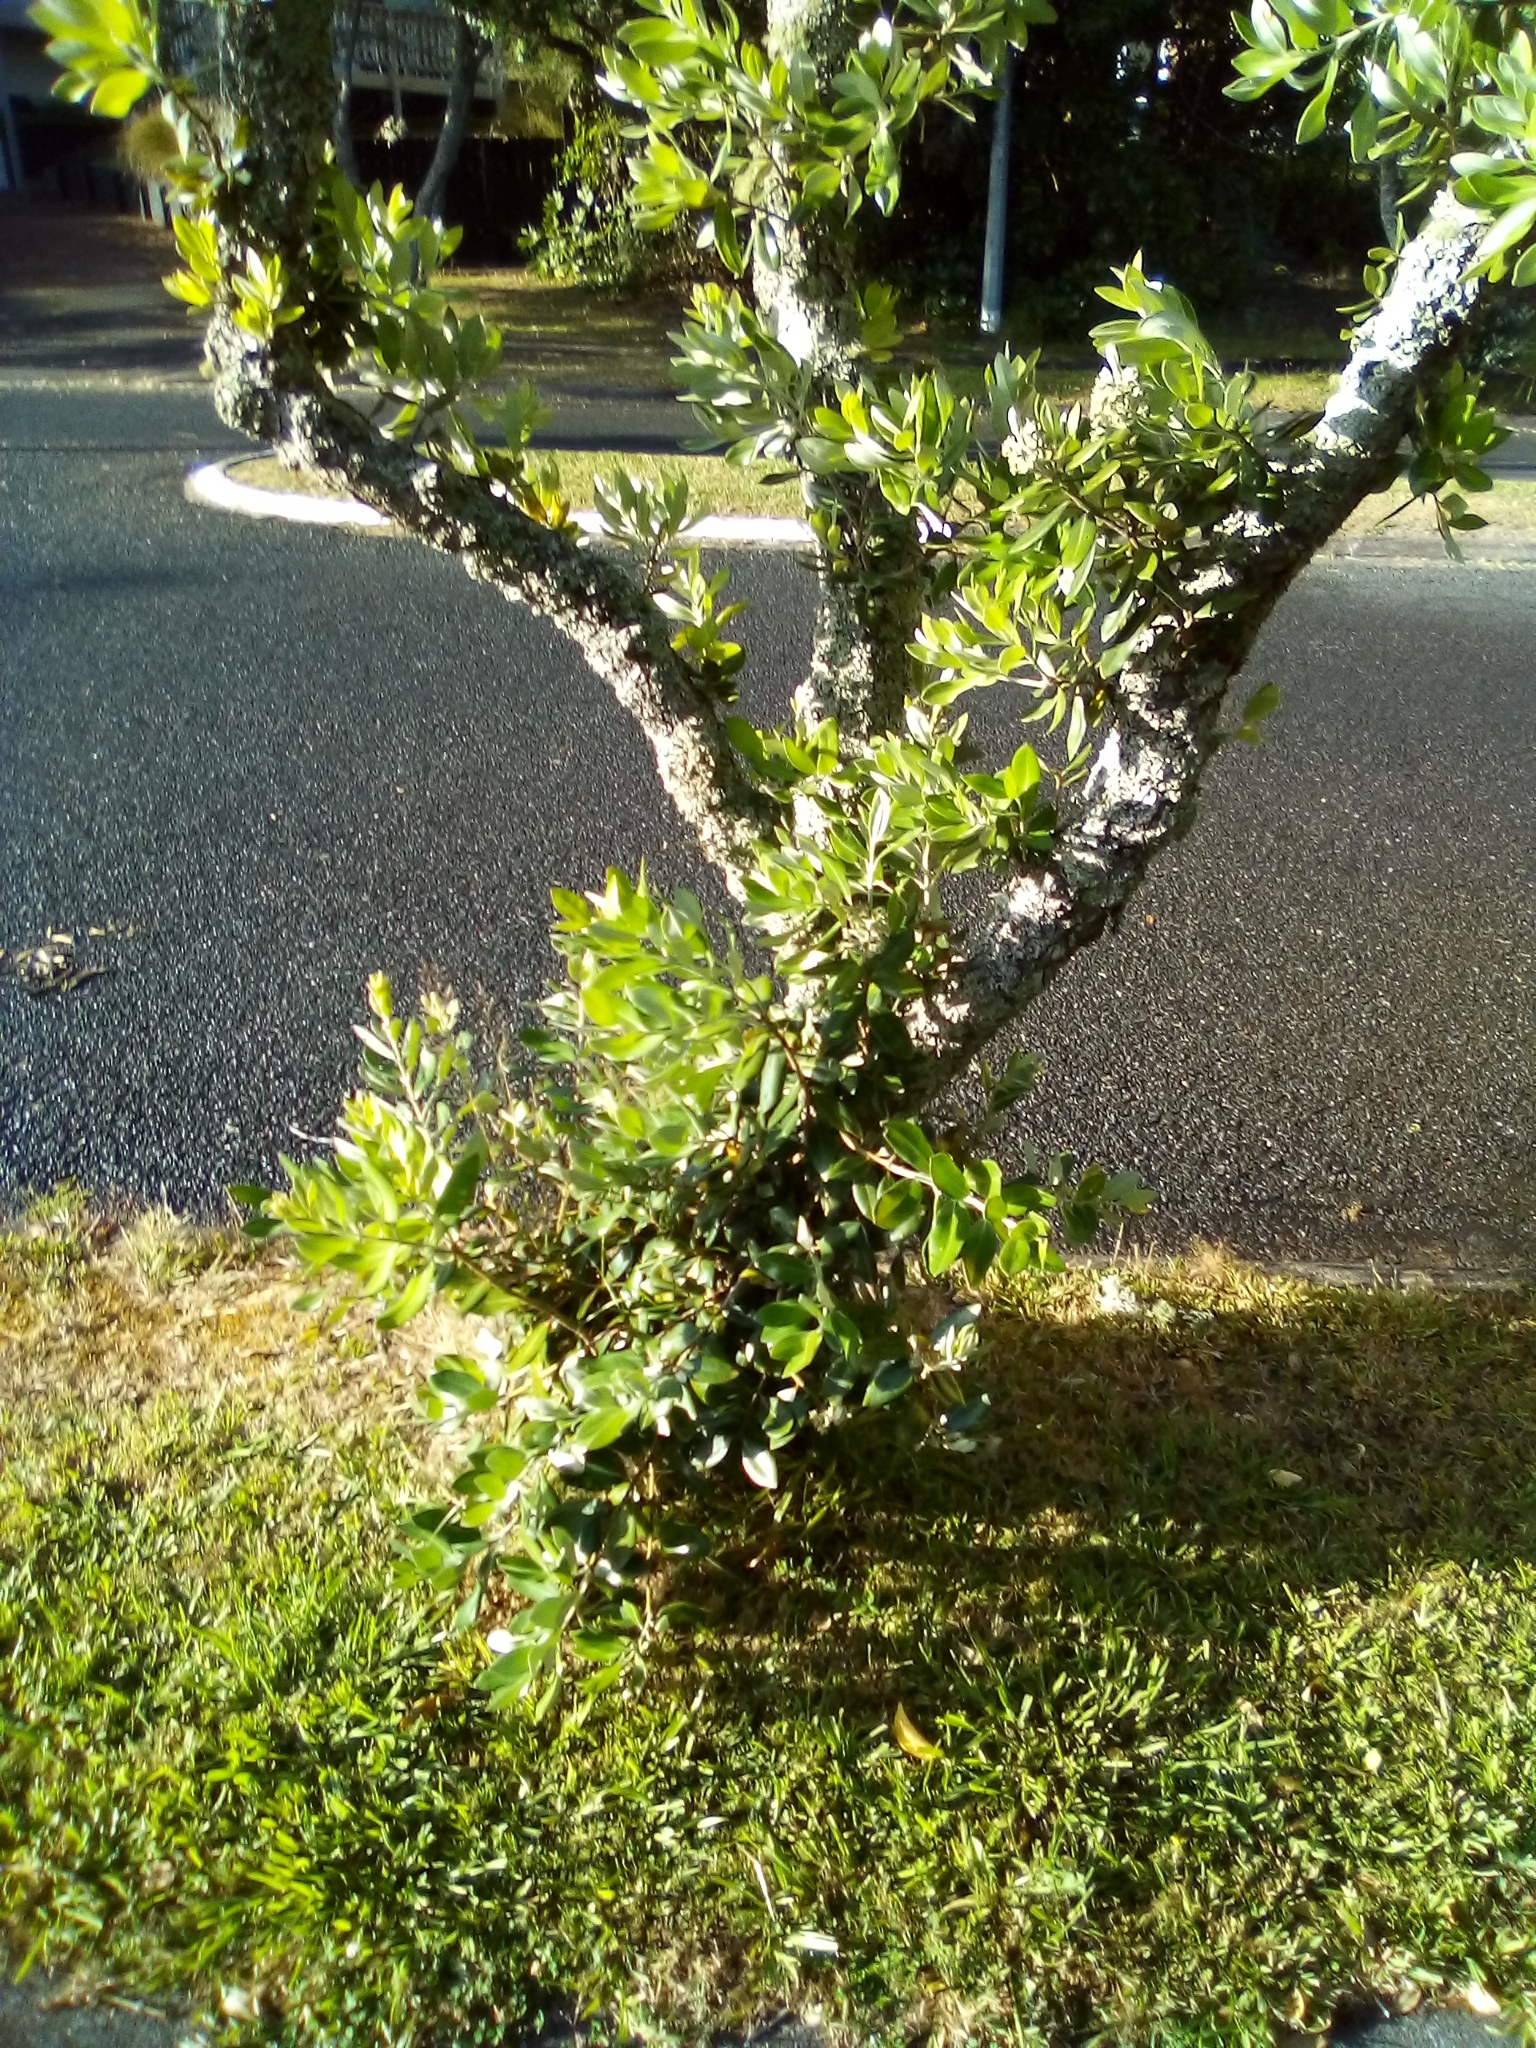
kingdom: Fungi
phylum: Basidiomycota
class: Pucciniomycetes
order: Pucciniales
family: Sphaerophragmiaceae
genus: Austropuccinia
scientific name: Austropuccinia psidii
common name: Myrtle rust
